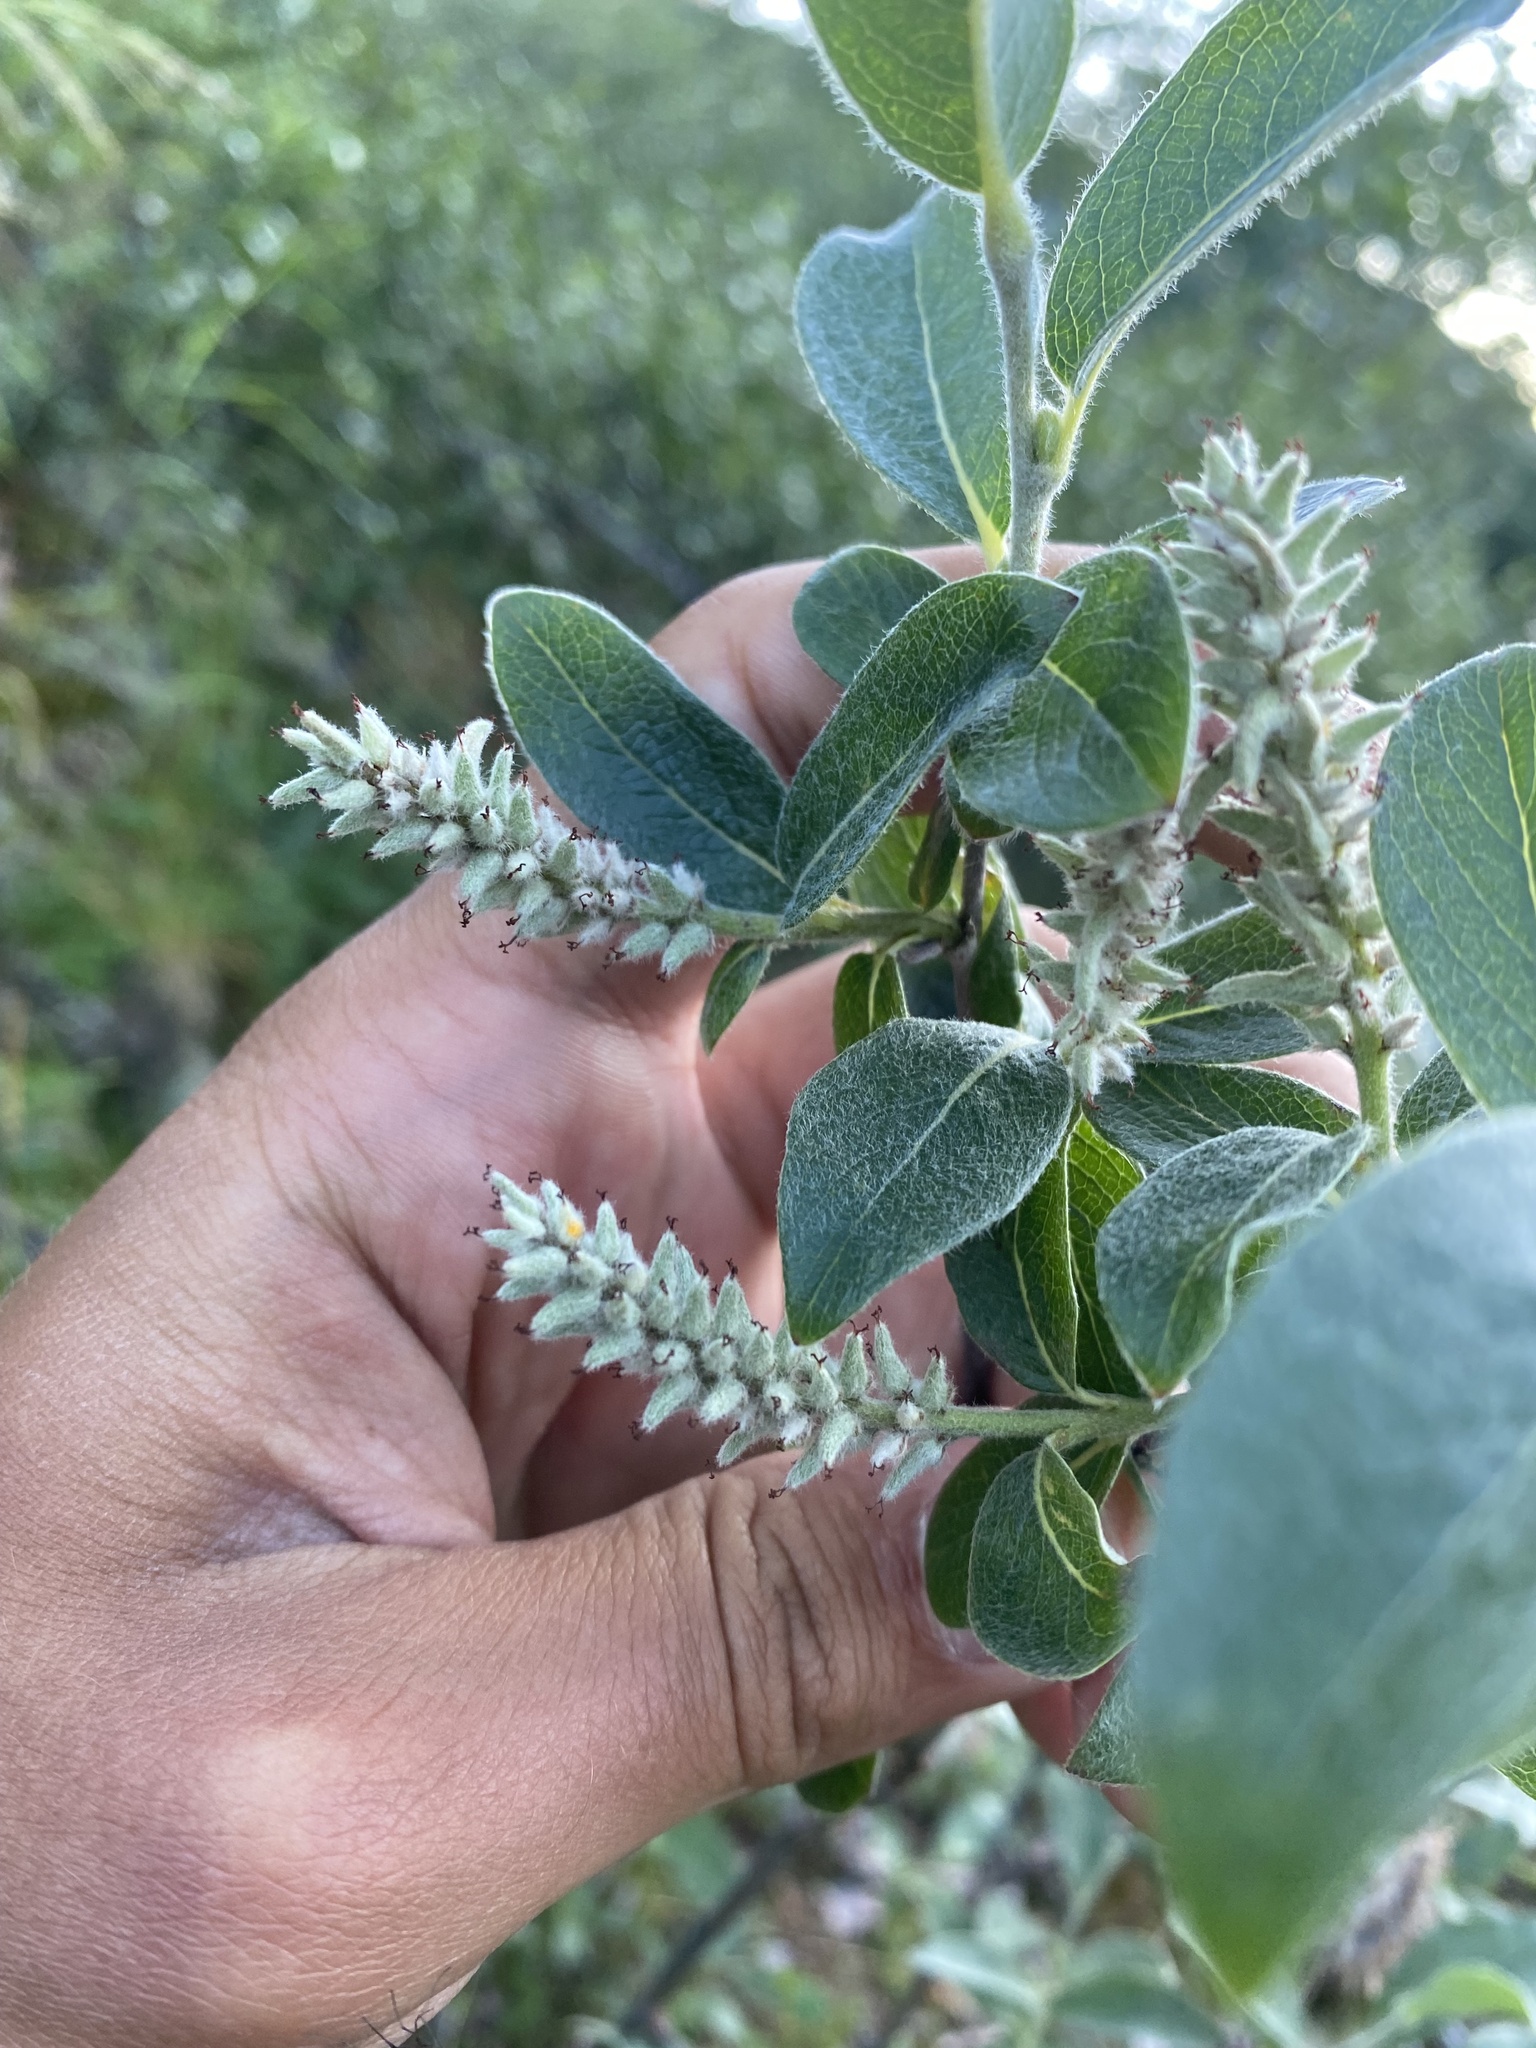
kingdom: Plantae
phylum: Tracheophyta
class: Magnoliopsida
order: Malpighiales
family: Salicaceae
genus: Salix
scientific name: Salix glauca
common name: Glaucous willow
